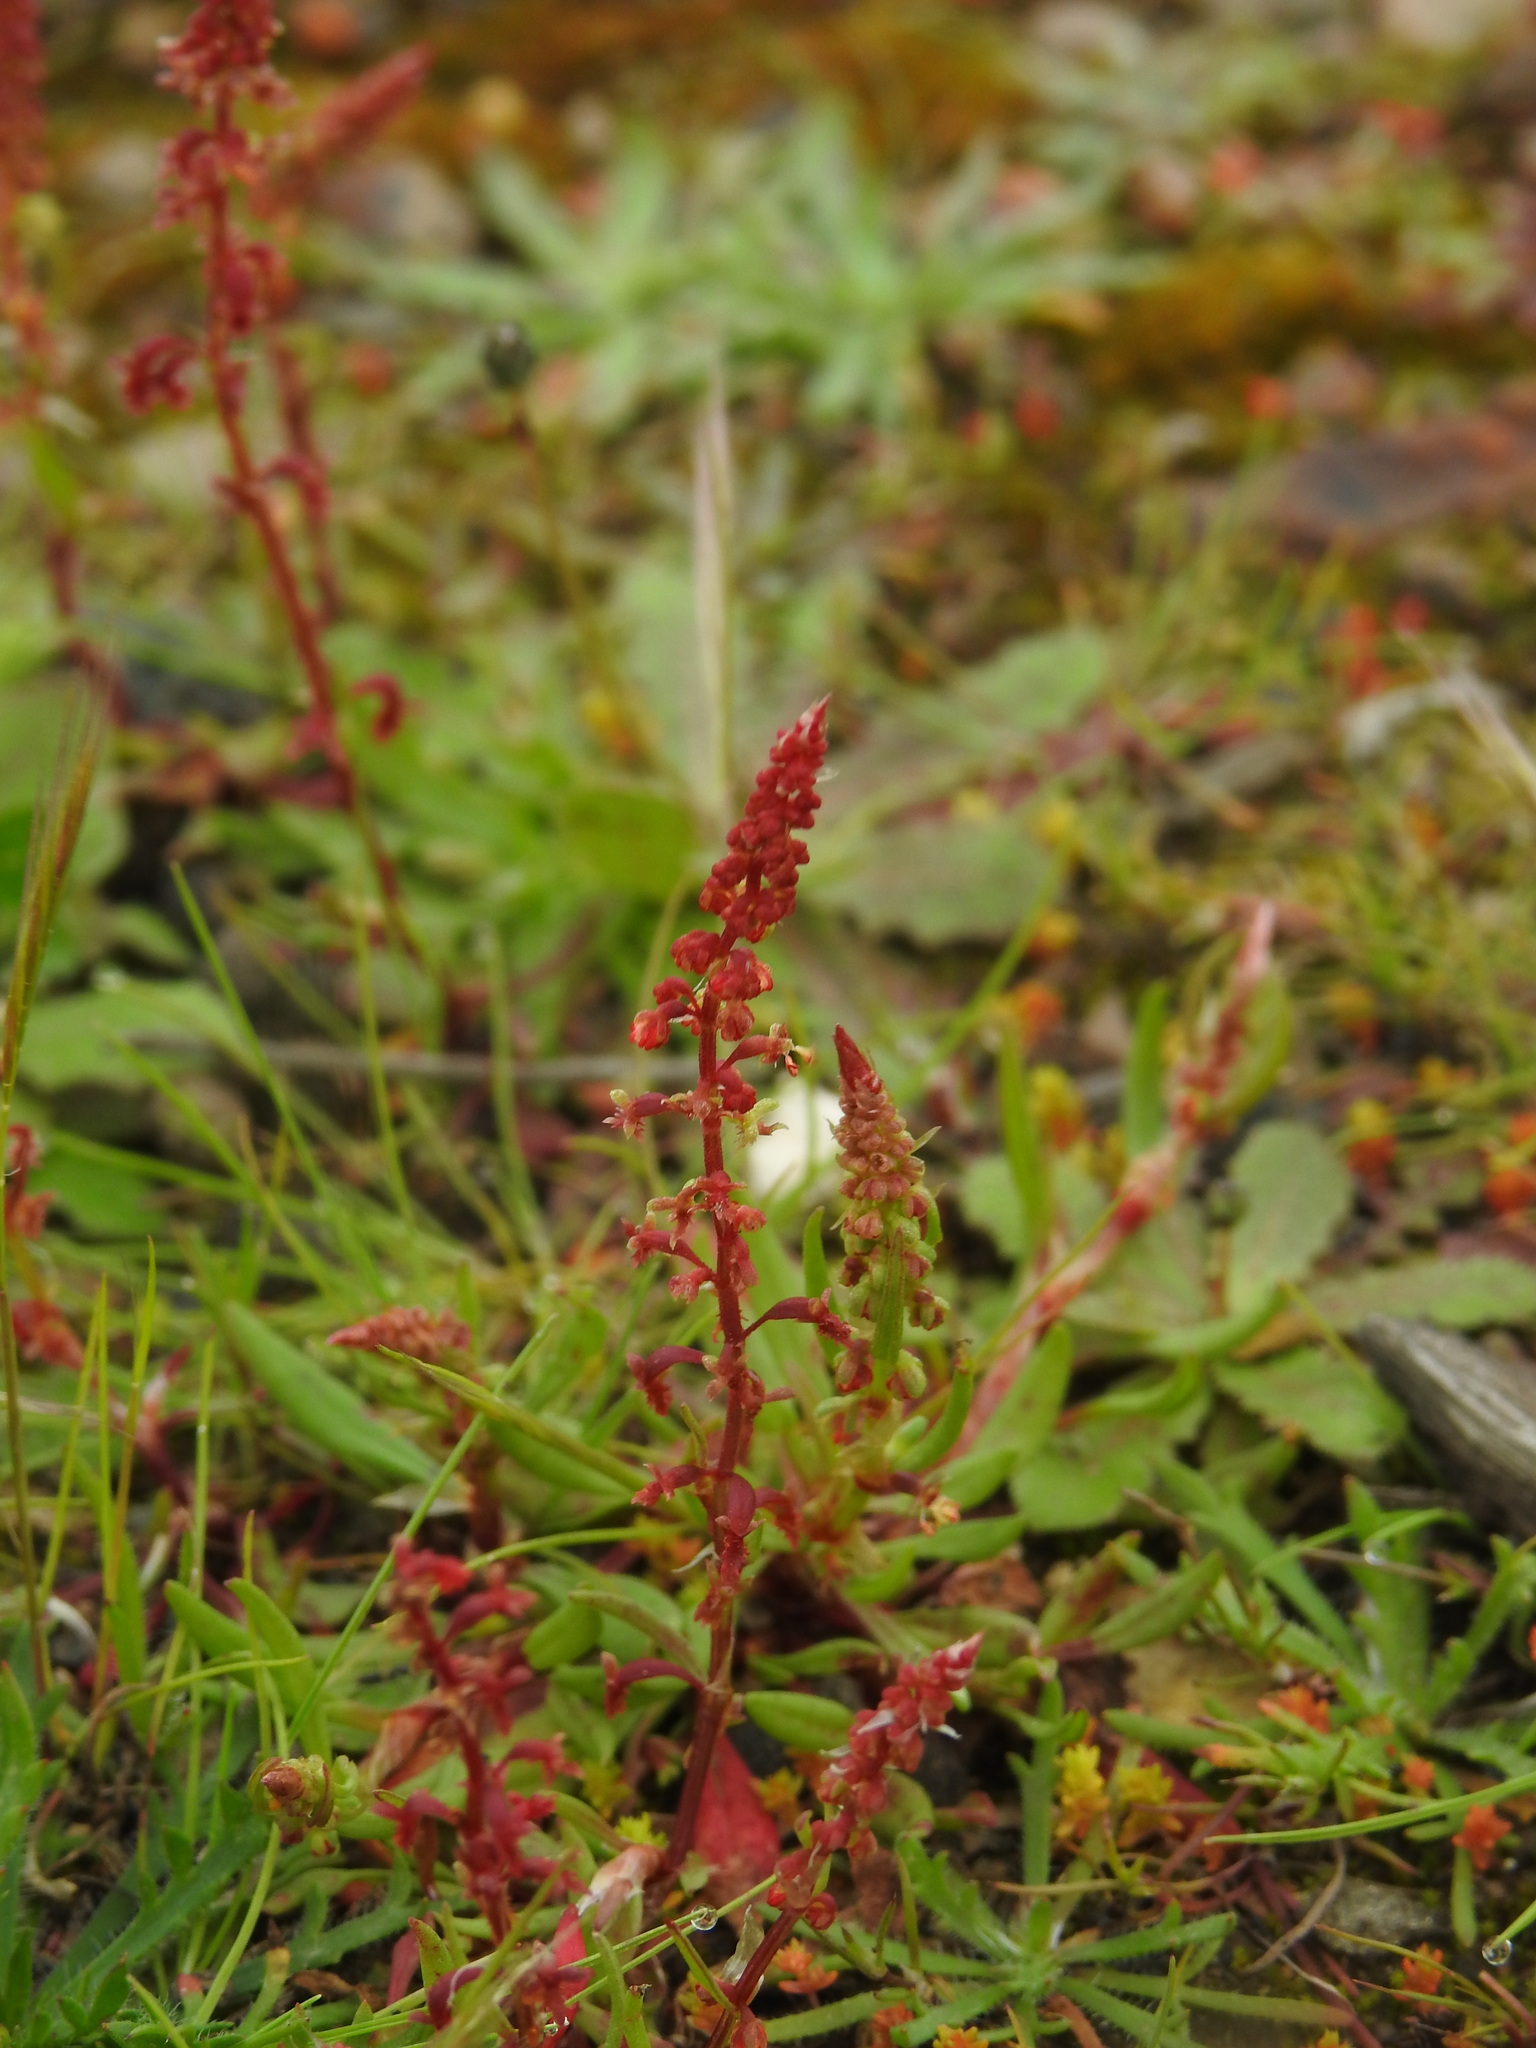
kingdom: Plantae
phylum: Tracheophyta
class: Magnoliopsida
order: Caryophyllales
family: Polygonaceae
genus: Rumex
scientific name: Rumex bucephalophorus
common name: Red dock
